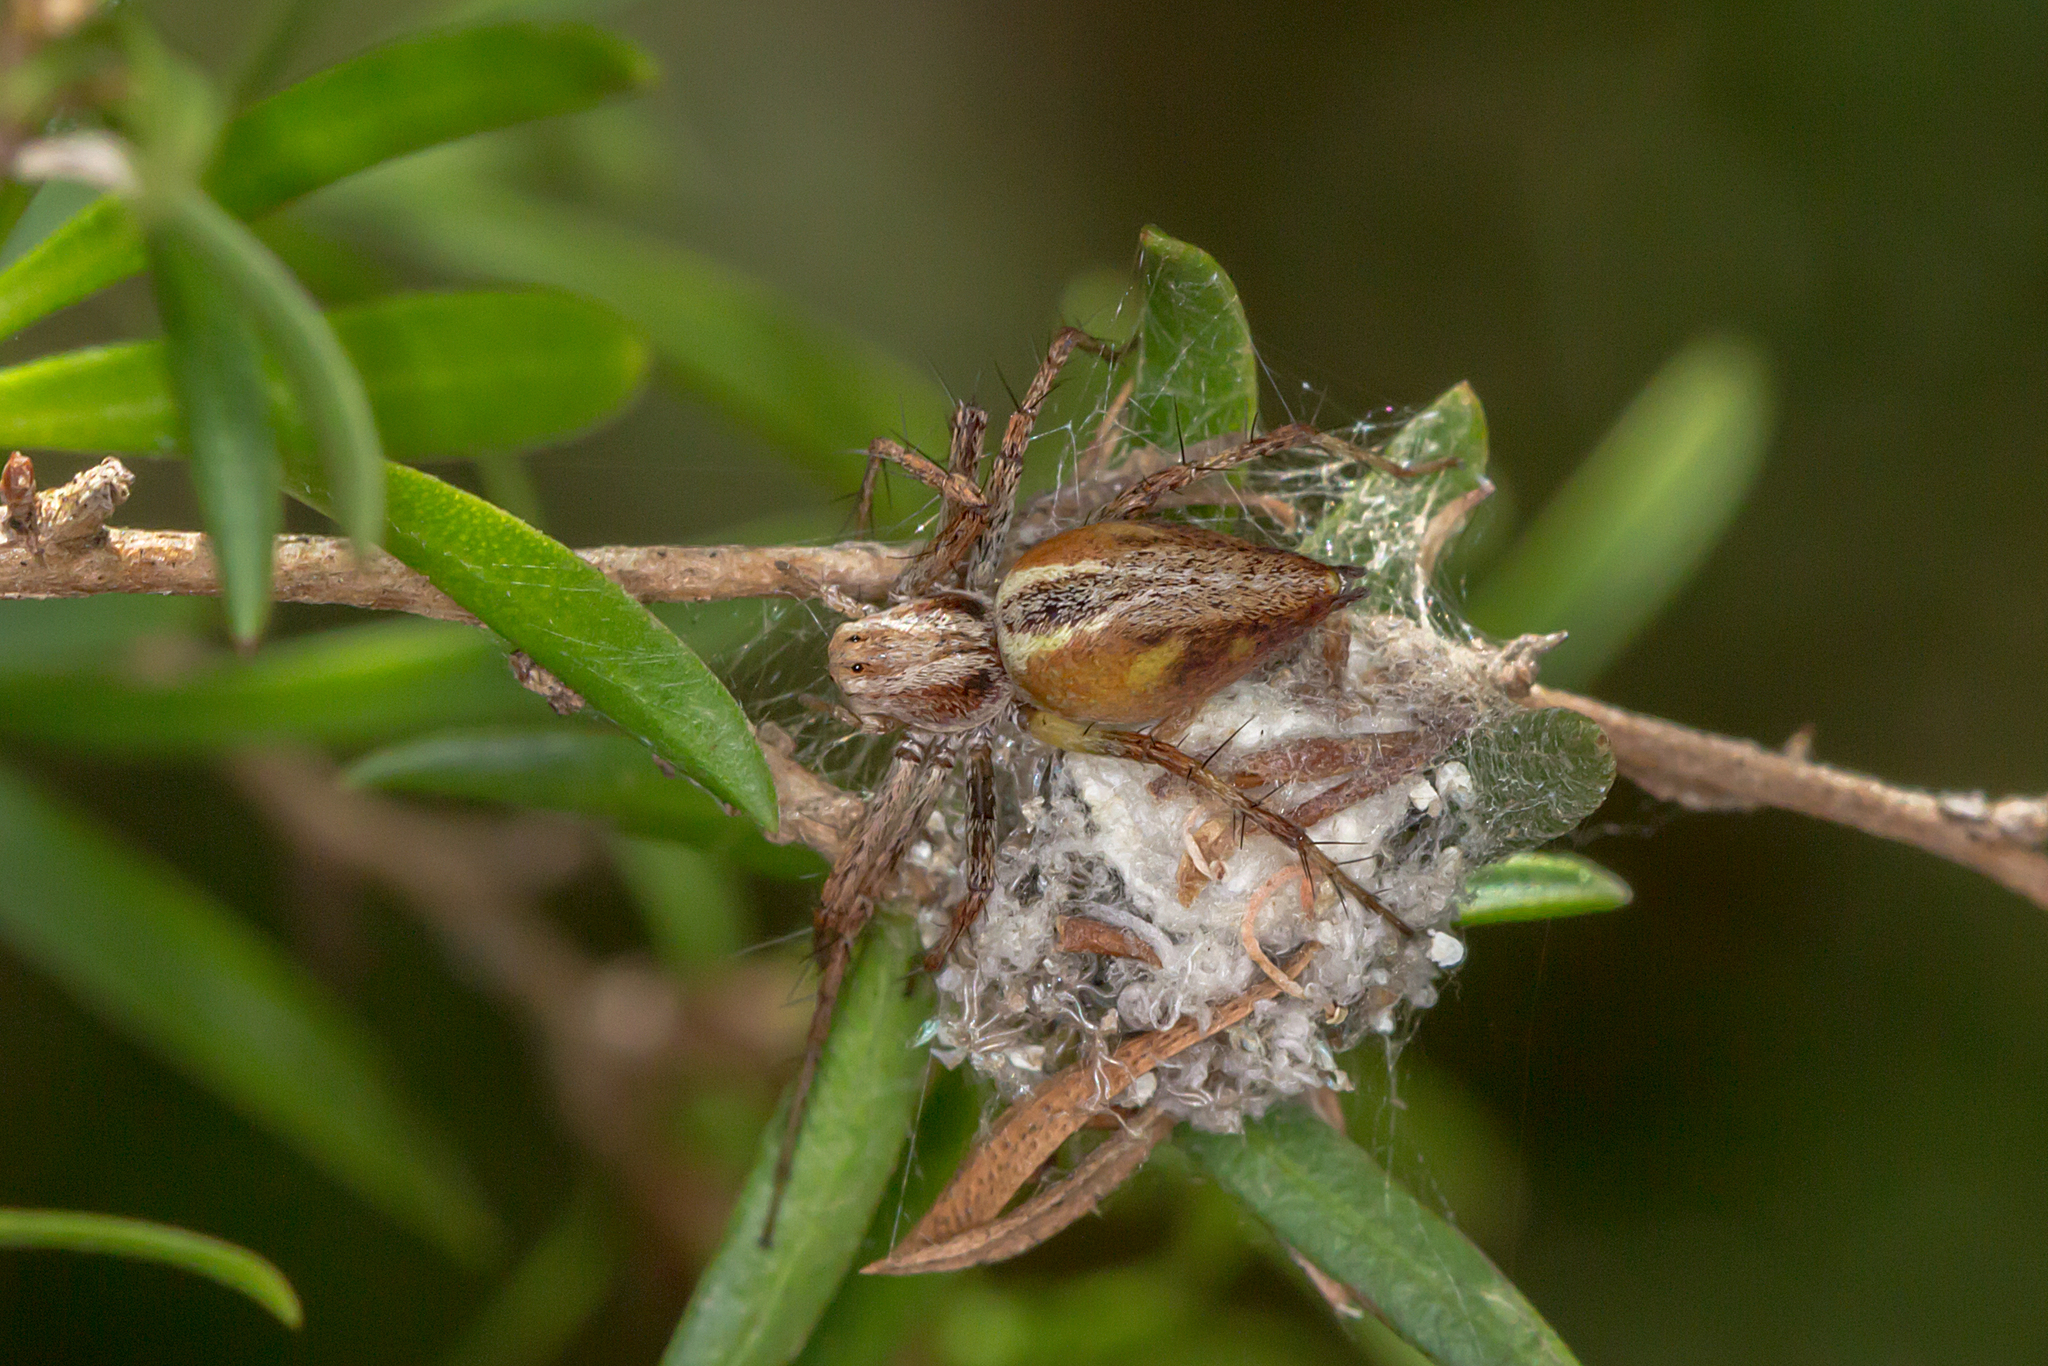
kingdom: Animalia
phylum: Arthropoda
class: Arachnida
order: Araneae
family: Oxyopidae
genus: Oxyopes
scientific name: Oxyopes amoenus
